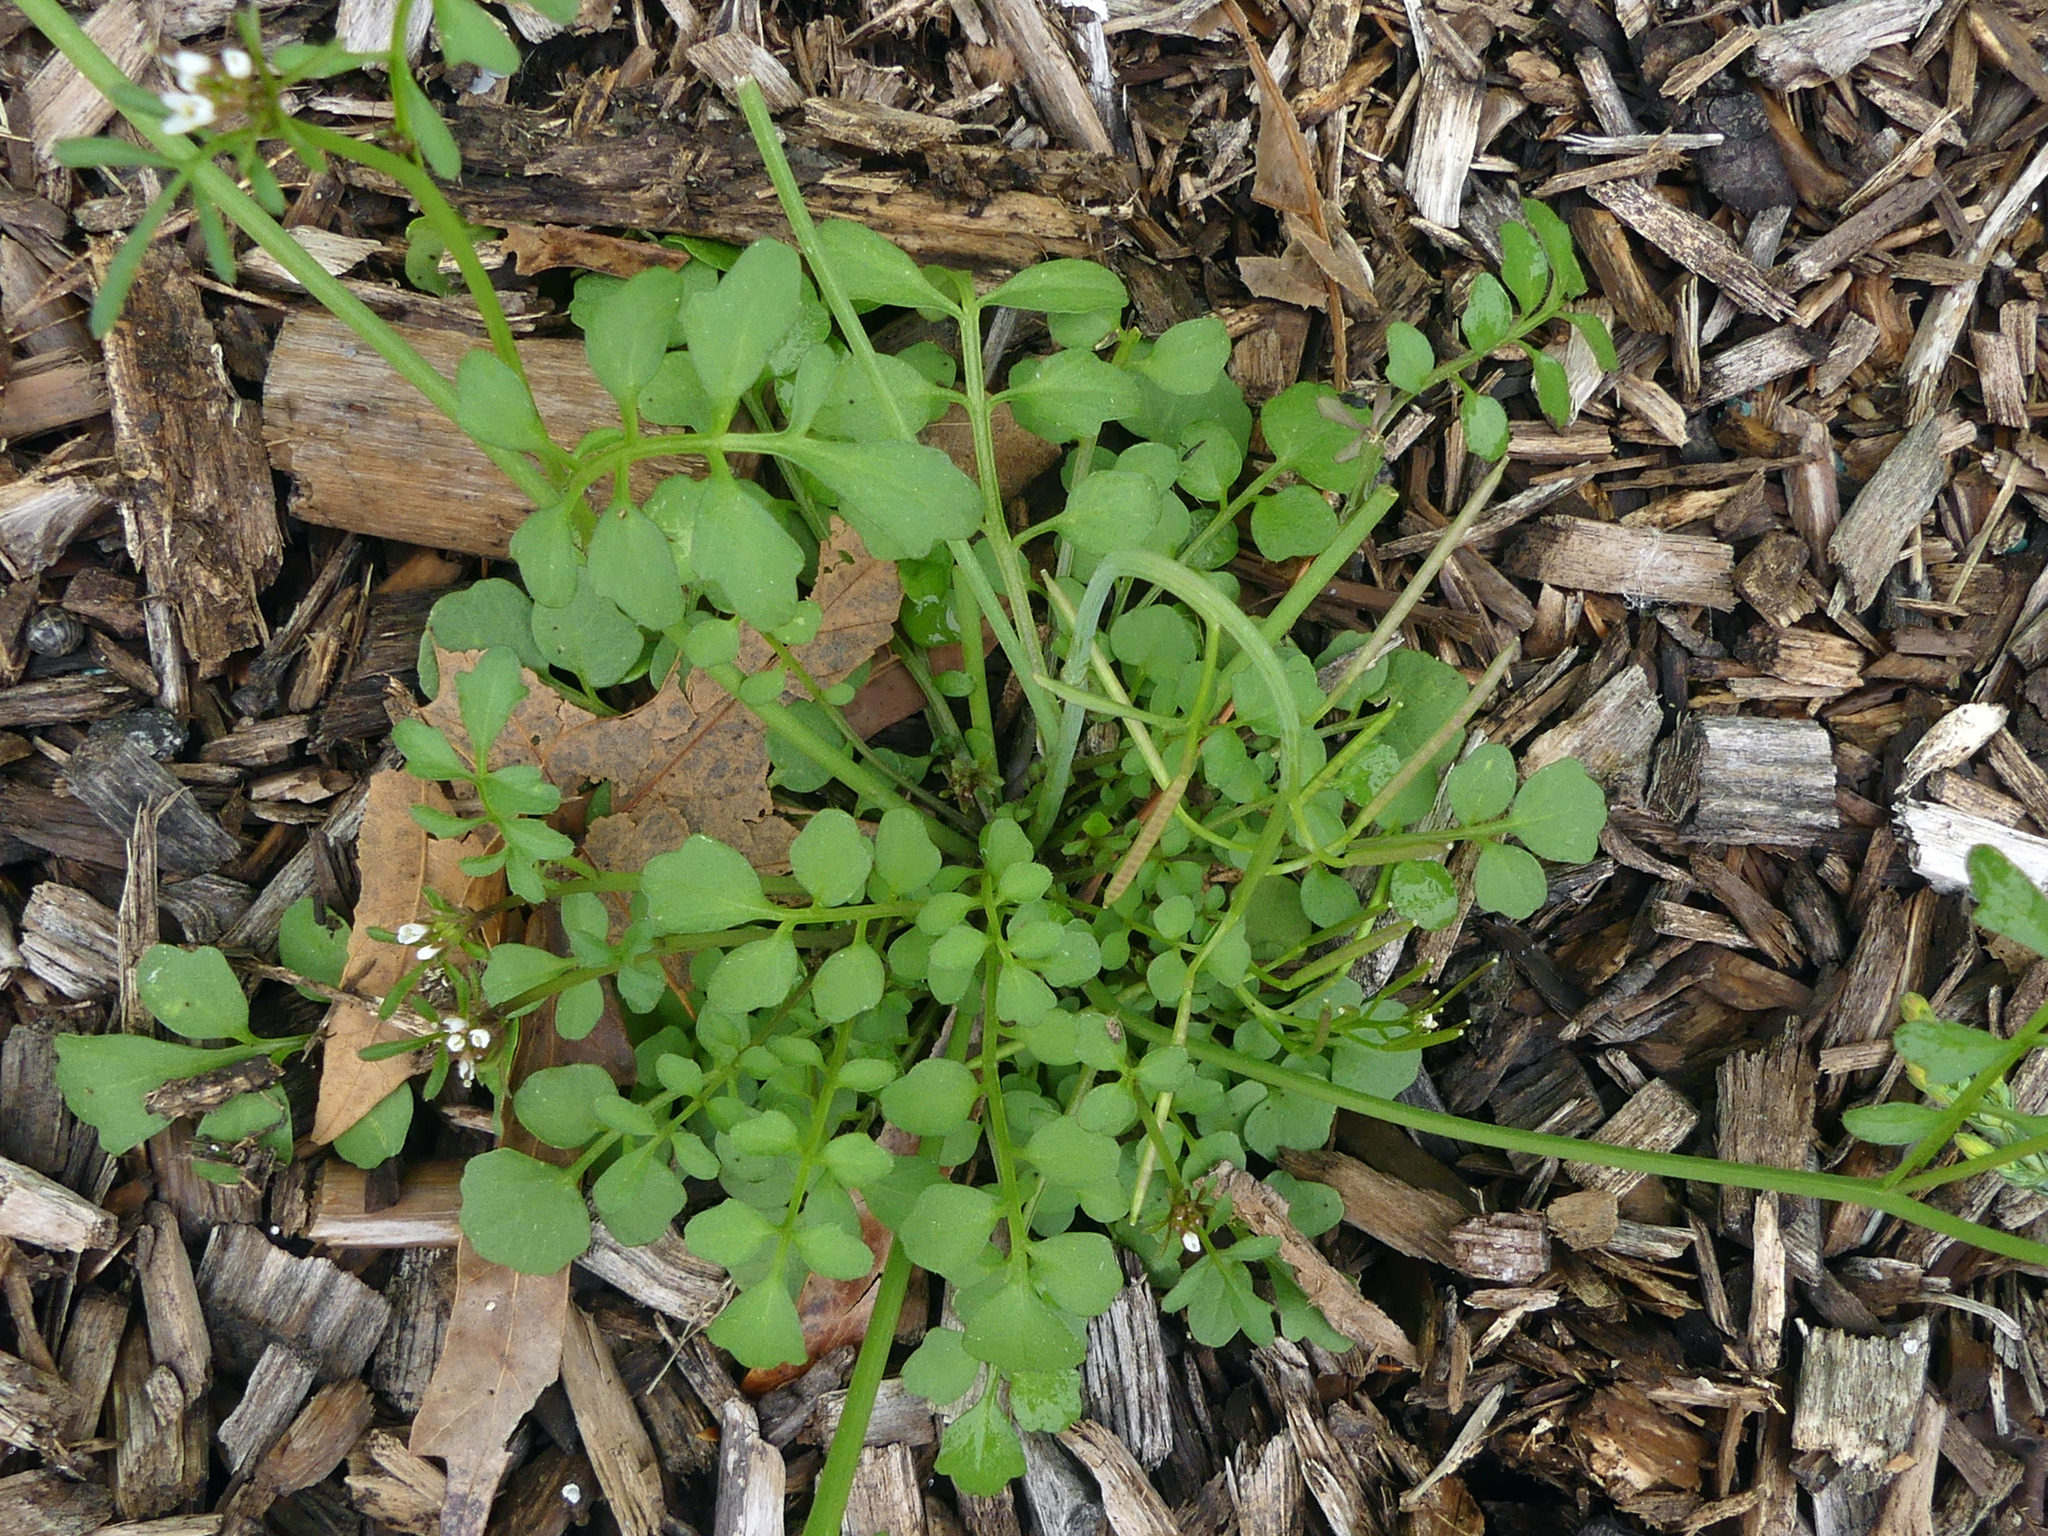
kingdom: Plantae
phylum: Tracheophyta
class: Magnoliopsida
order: Brassicales
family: Brassicaceae
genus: Cardamine
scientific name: Cardamine hirsuta
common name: Hairy bittercress
